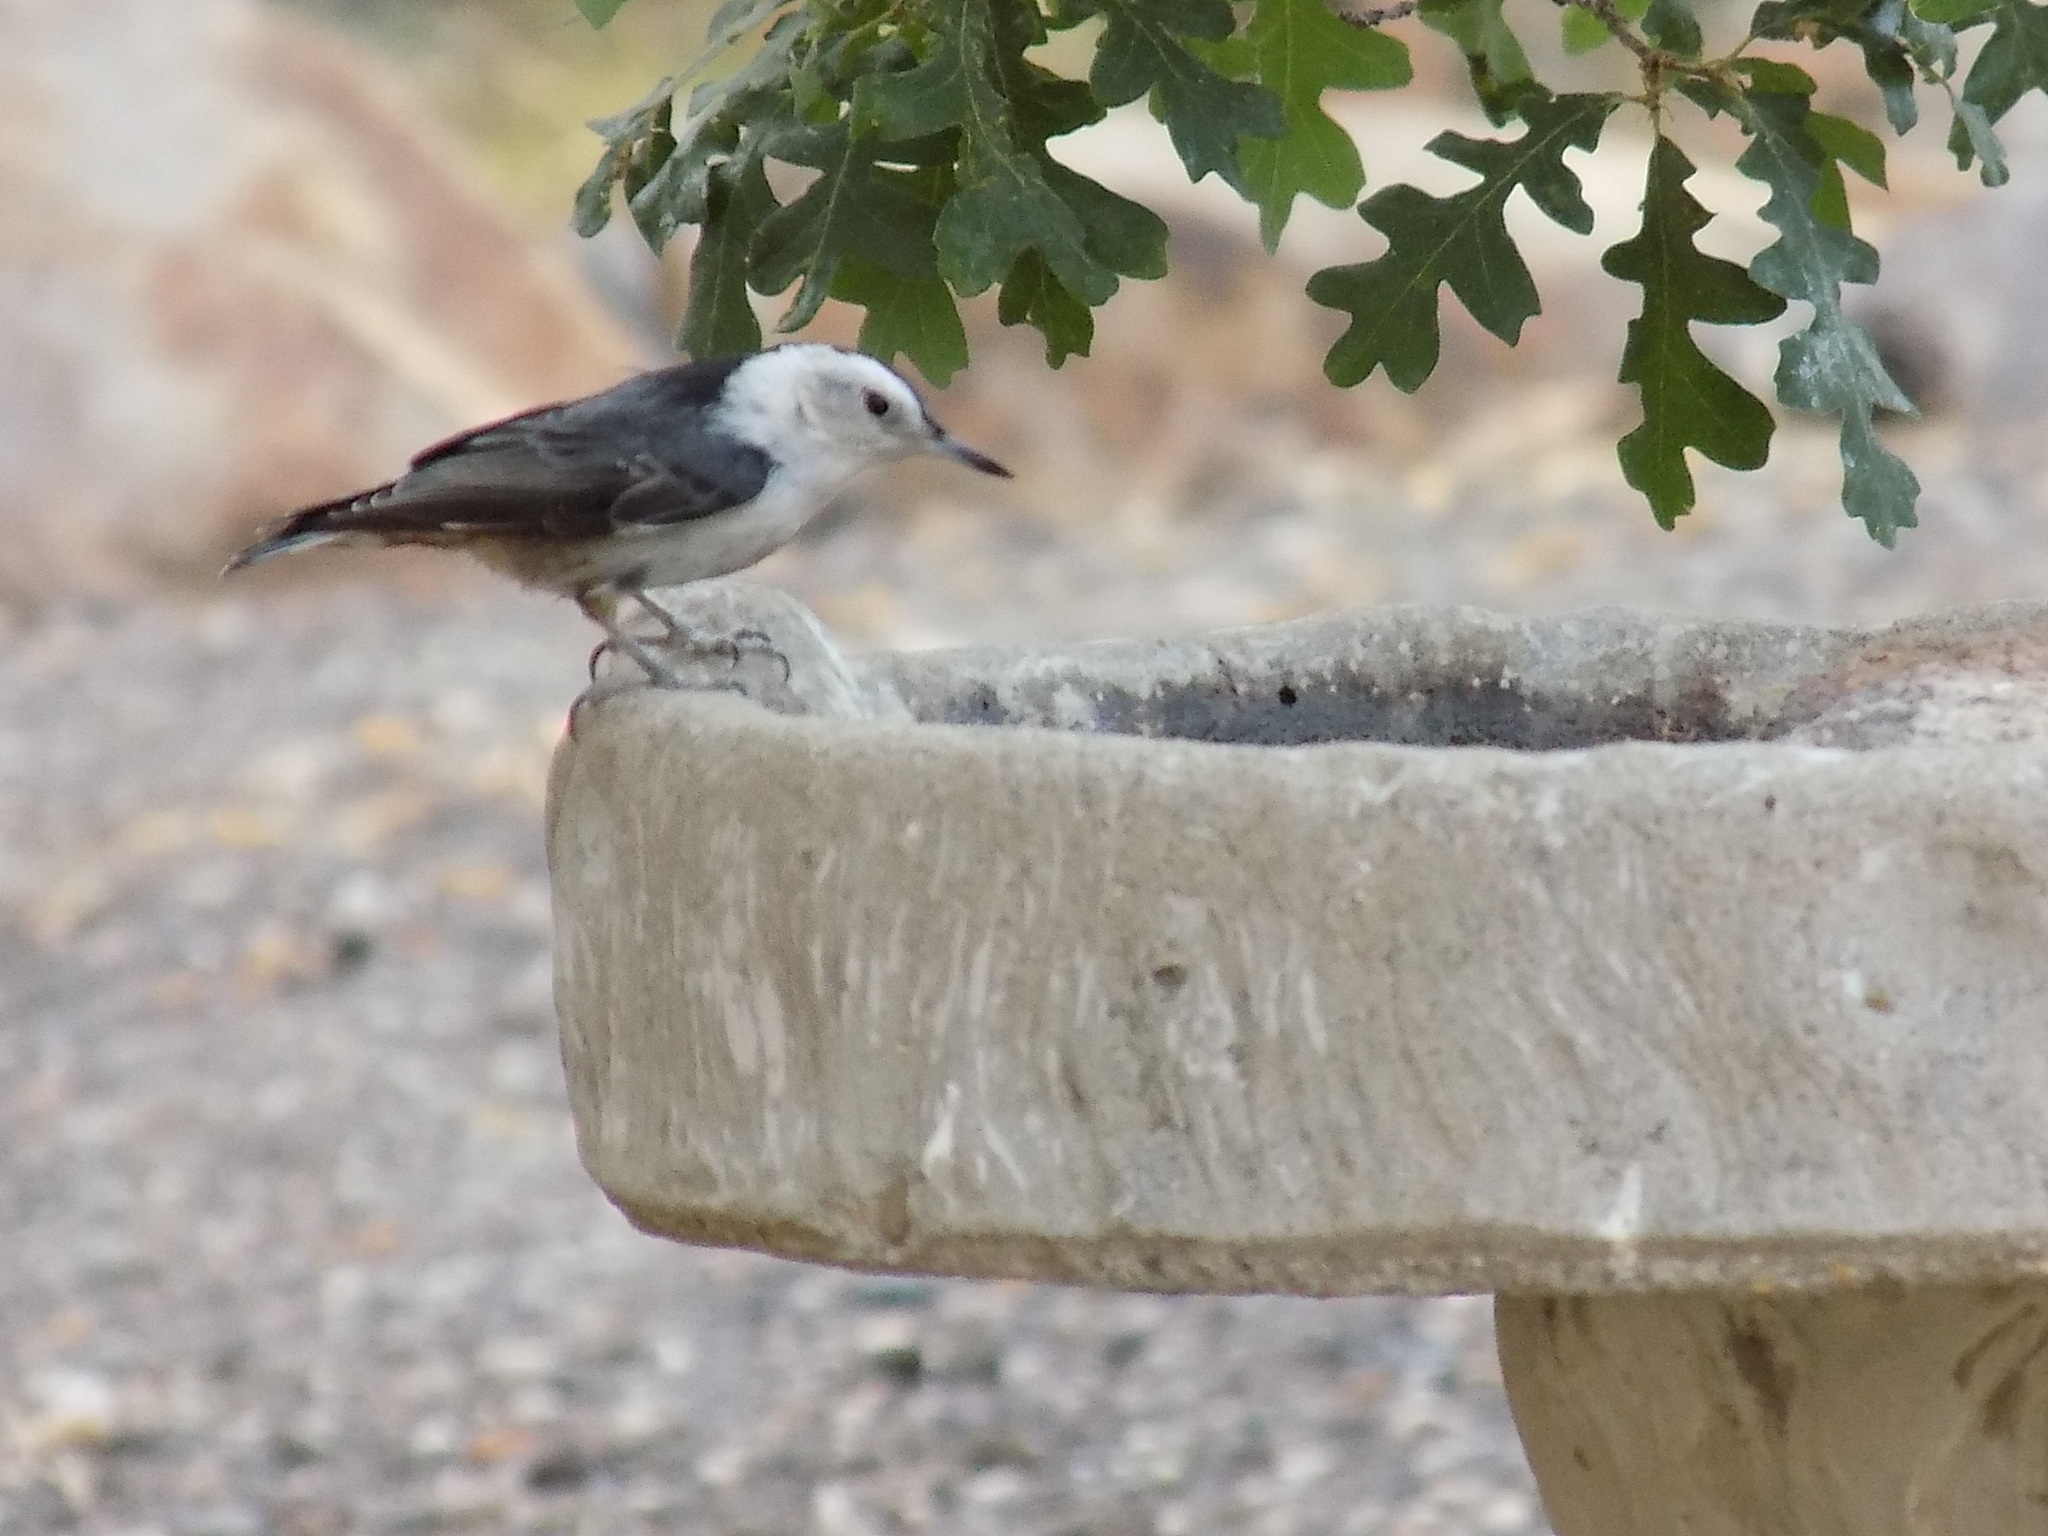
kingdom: Animalia
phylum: Chordata
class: Aves
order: Passeriformes
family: Sittidae
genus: Sitta
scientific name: Sitta carolinensis
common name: White-breasted nuthatch
